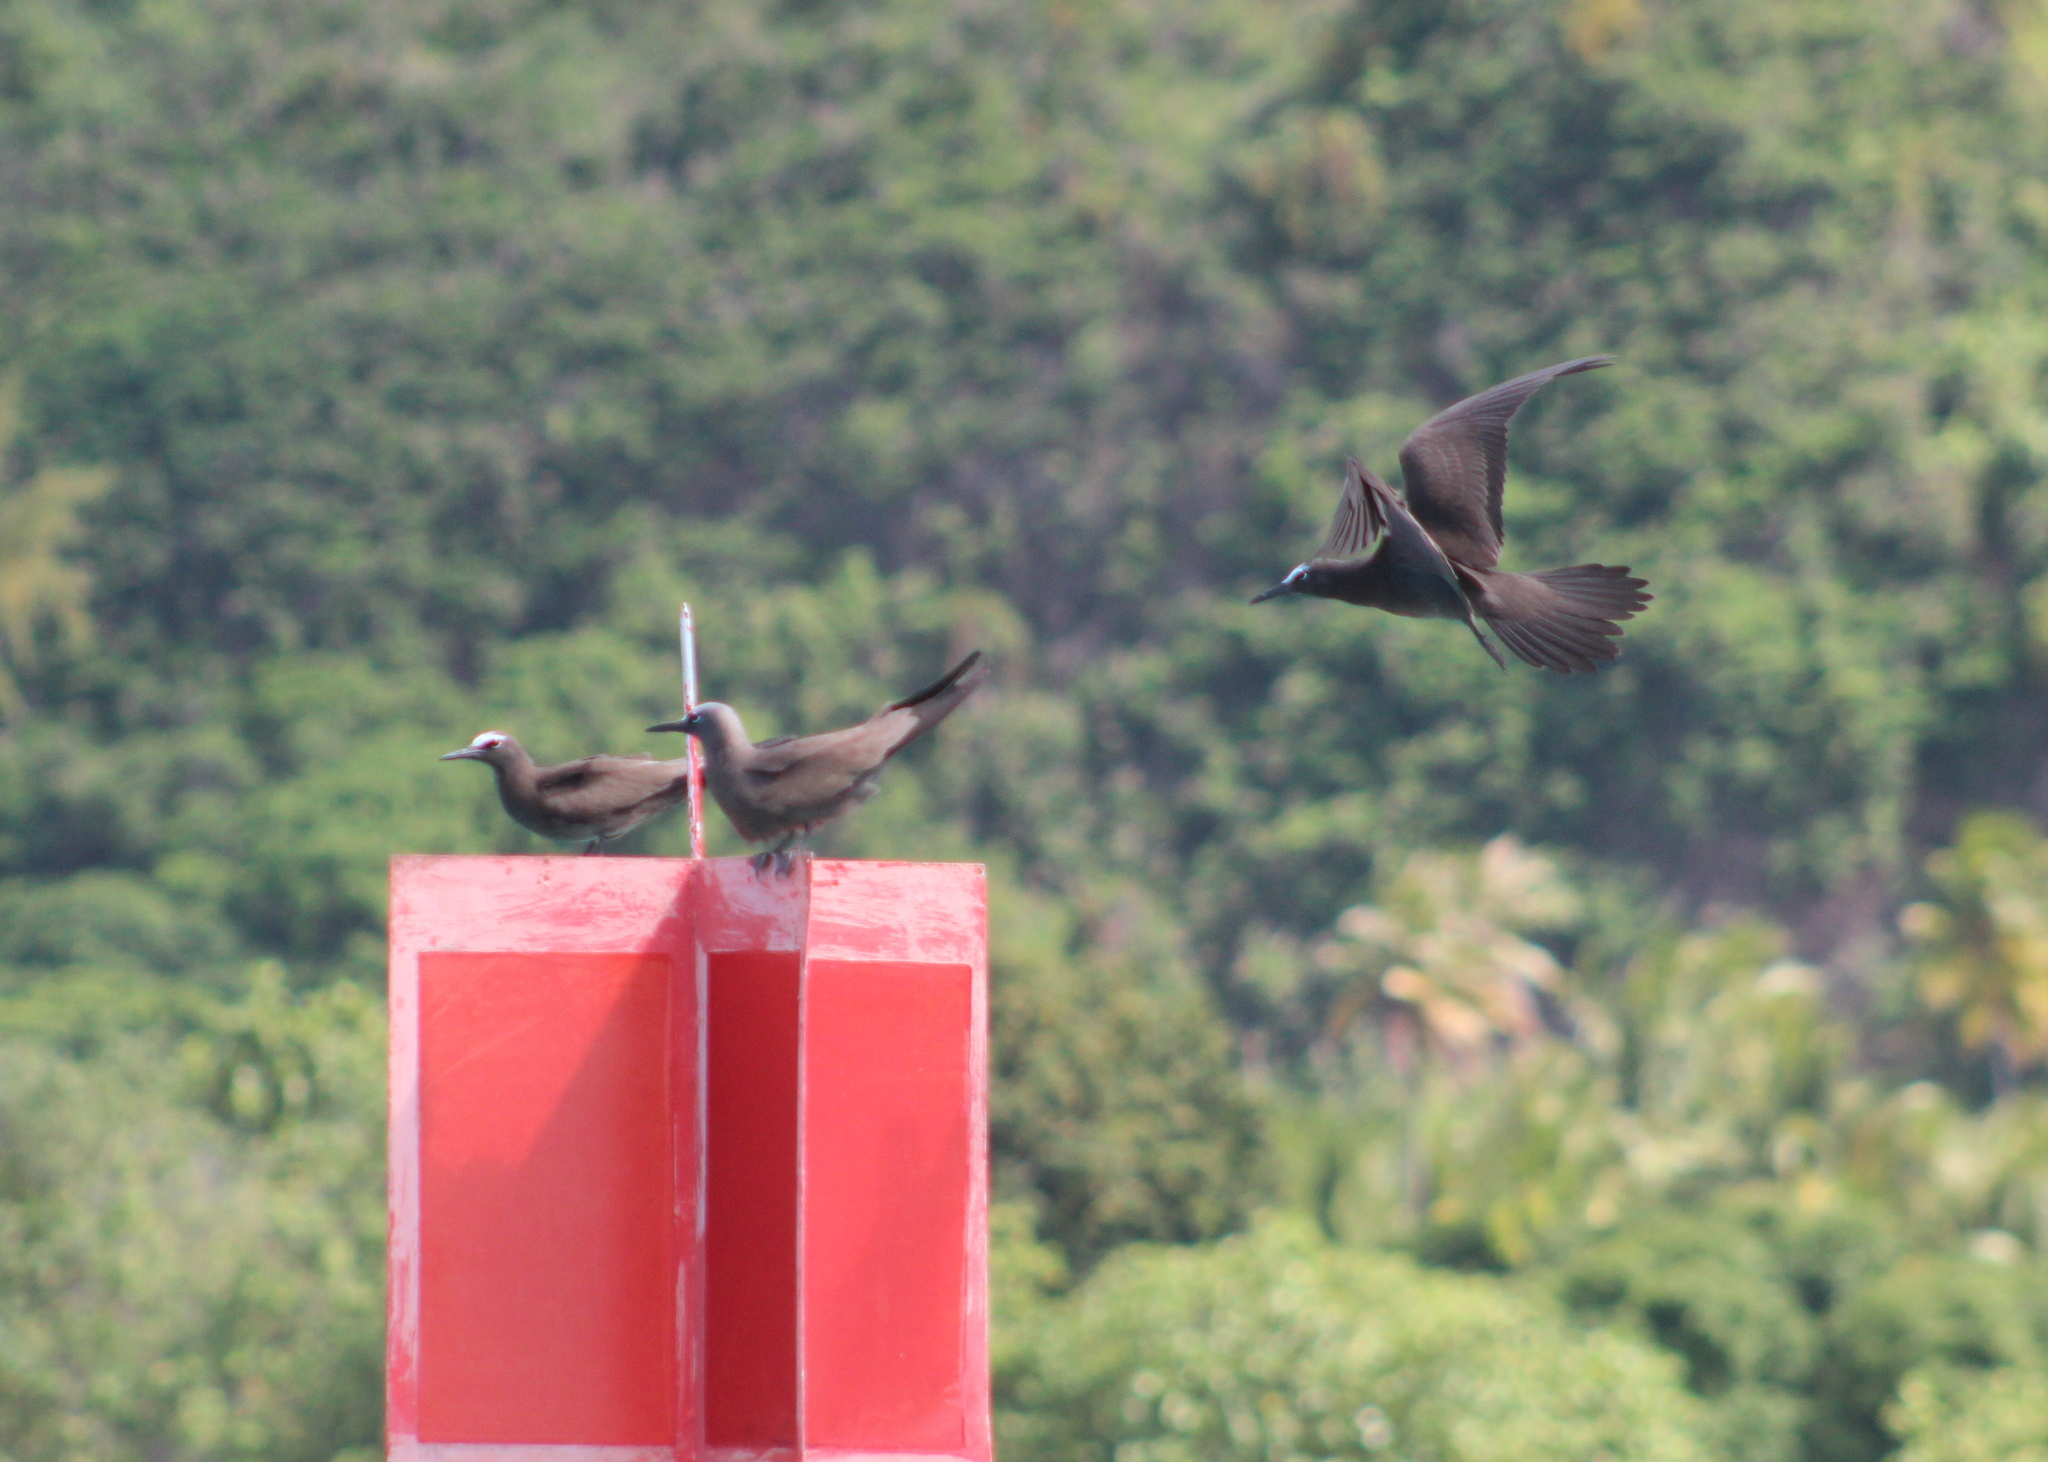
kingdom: Animalia
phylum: Chordata
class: Aves
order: Charadriiformes
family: Laridae
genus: Anous
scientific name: Anous stolidus
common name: Brown noddy
